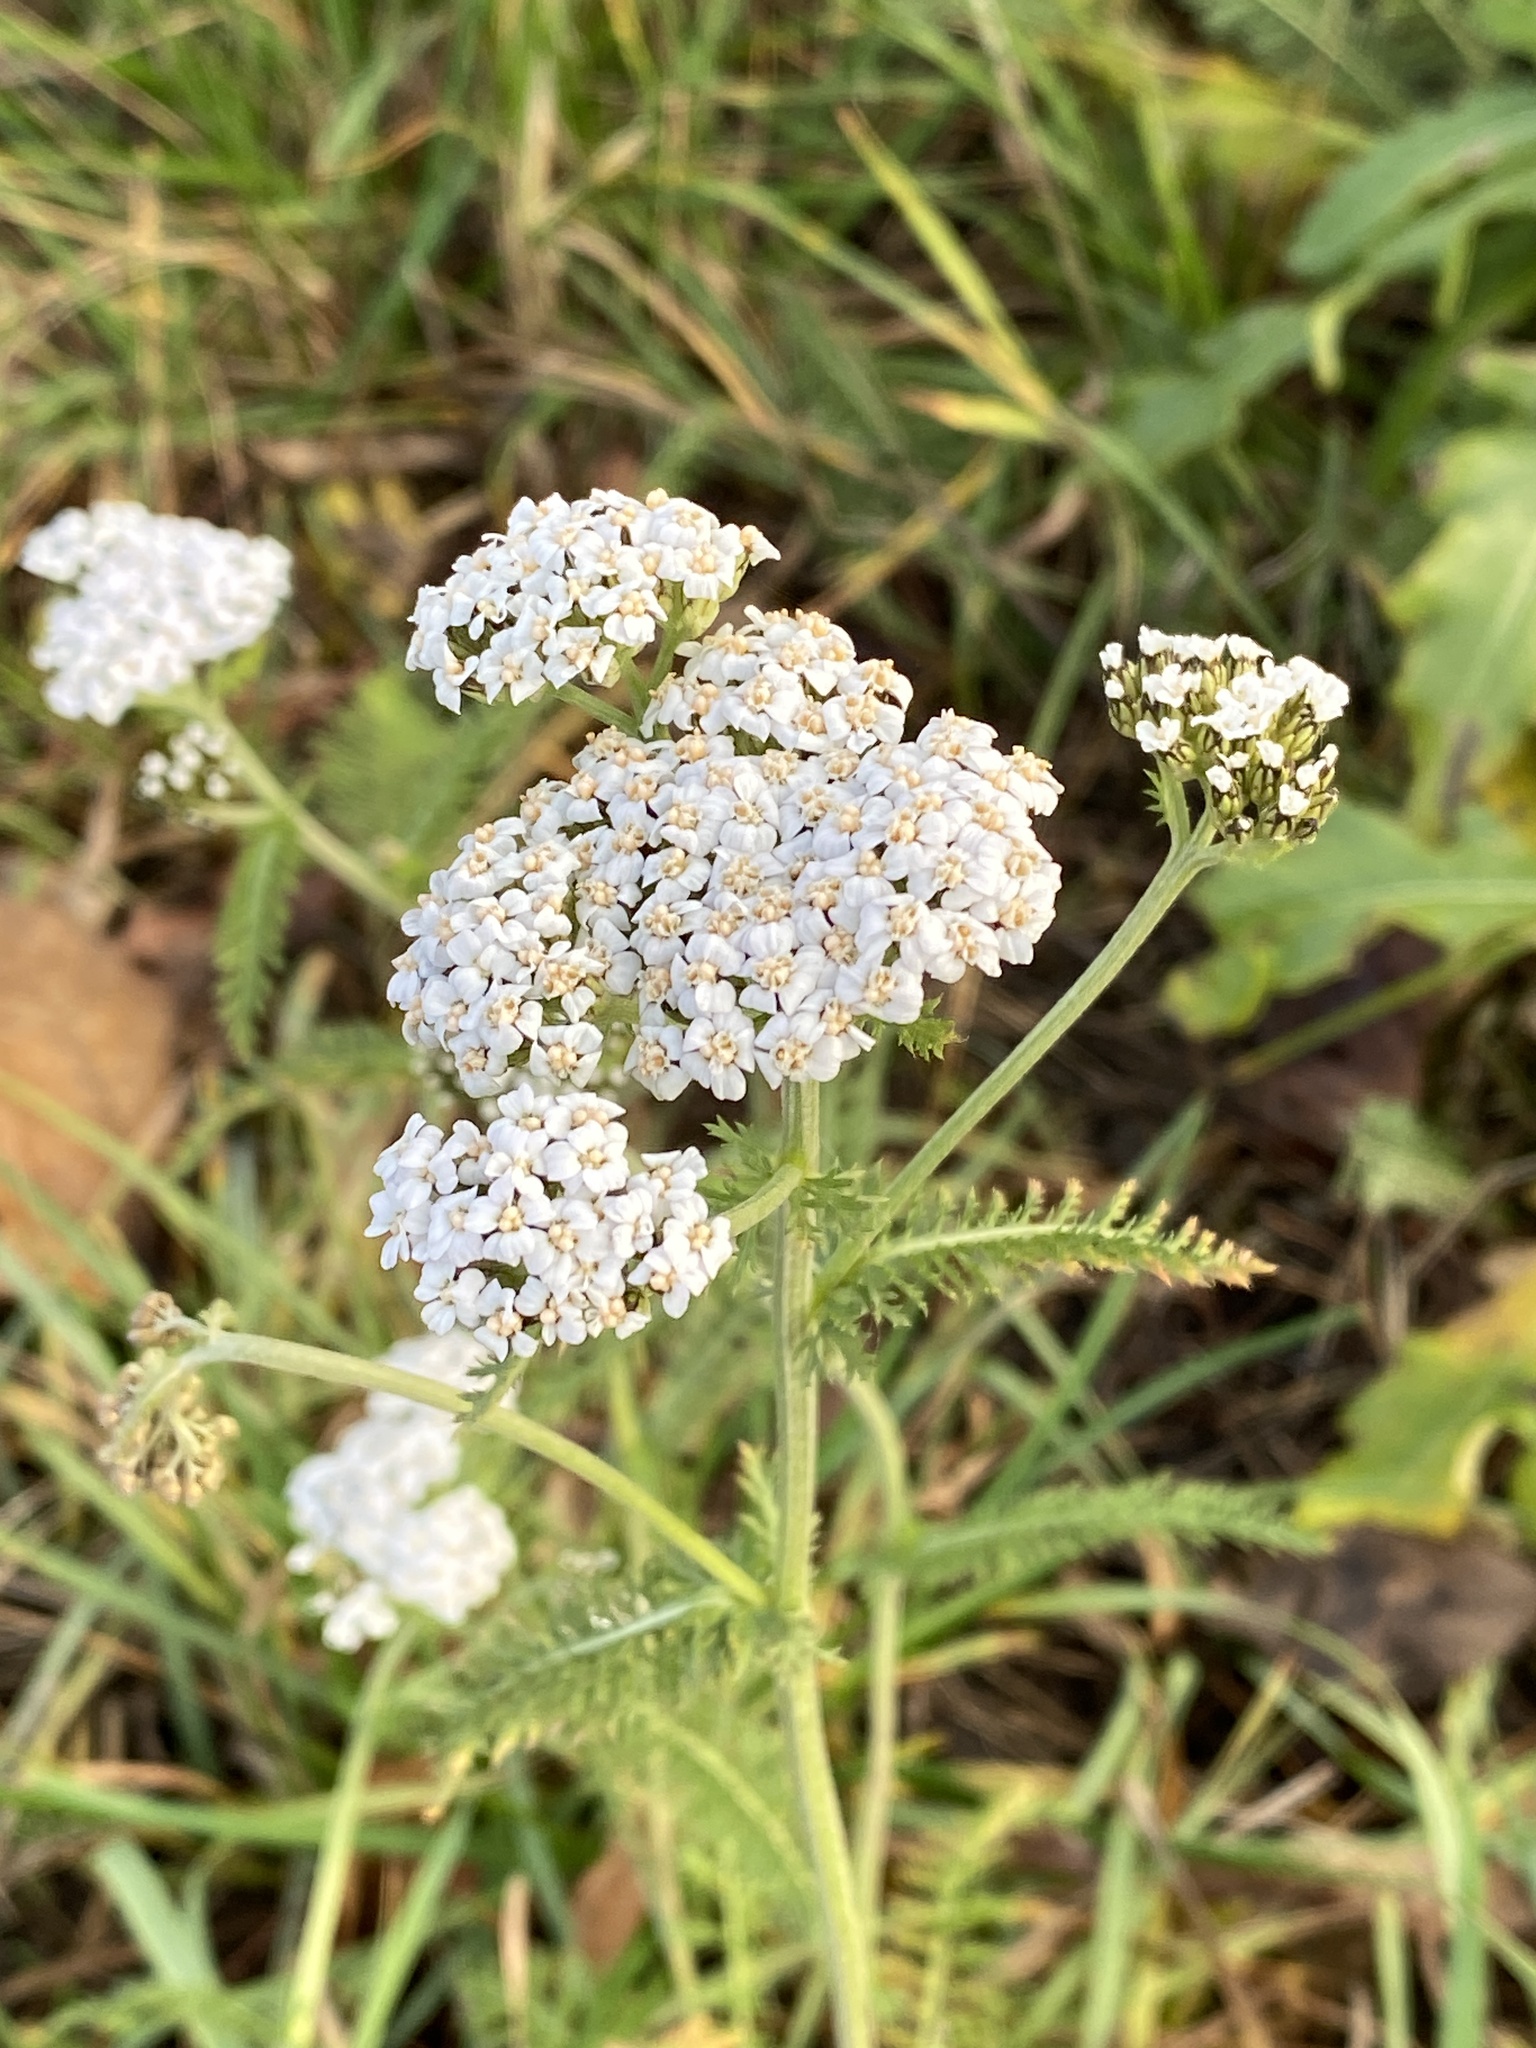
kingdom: Plantae
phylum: Tracheophyta
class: Magnoliopsida
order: Asterales
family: Asteraceae
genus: Achillea
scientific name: Achillea millefolium
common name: Yarrow
